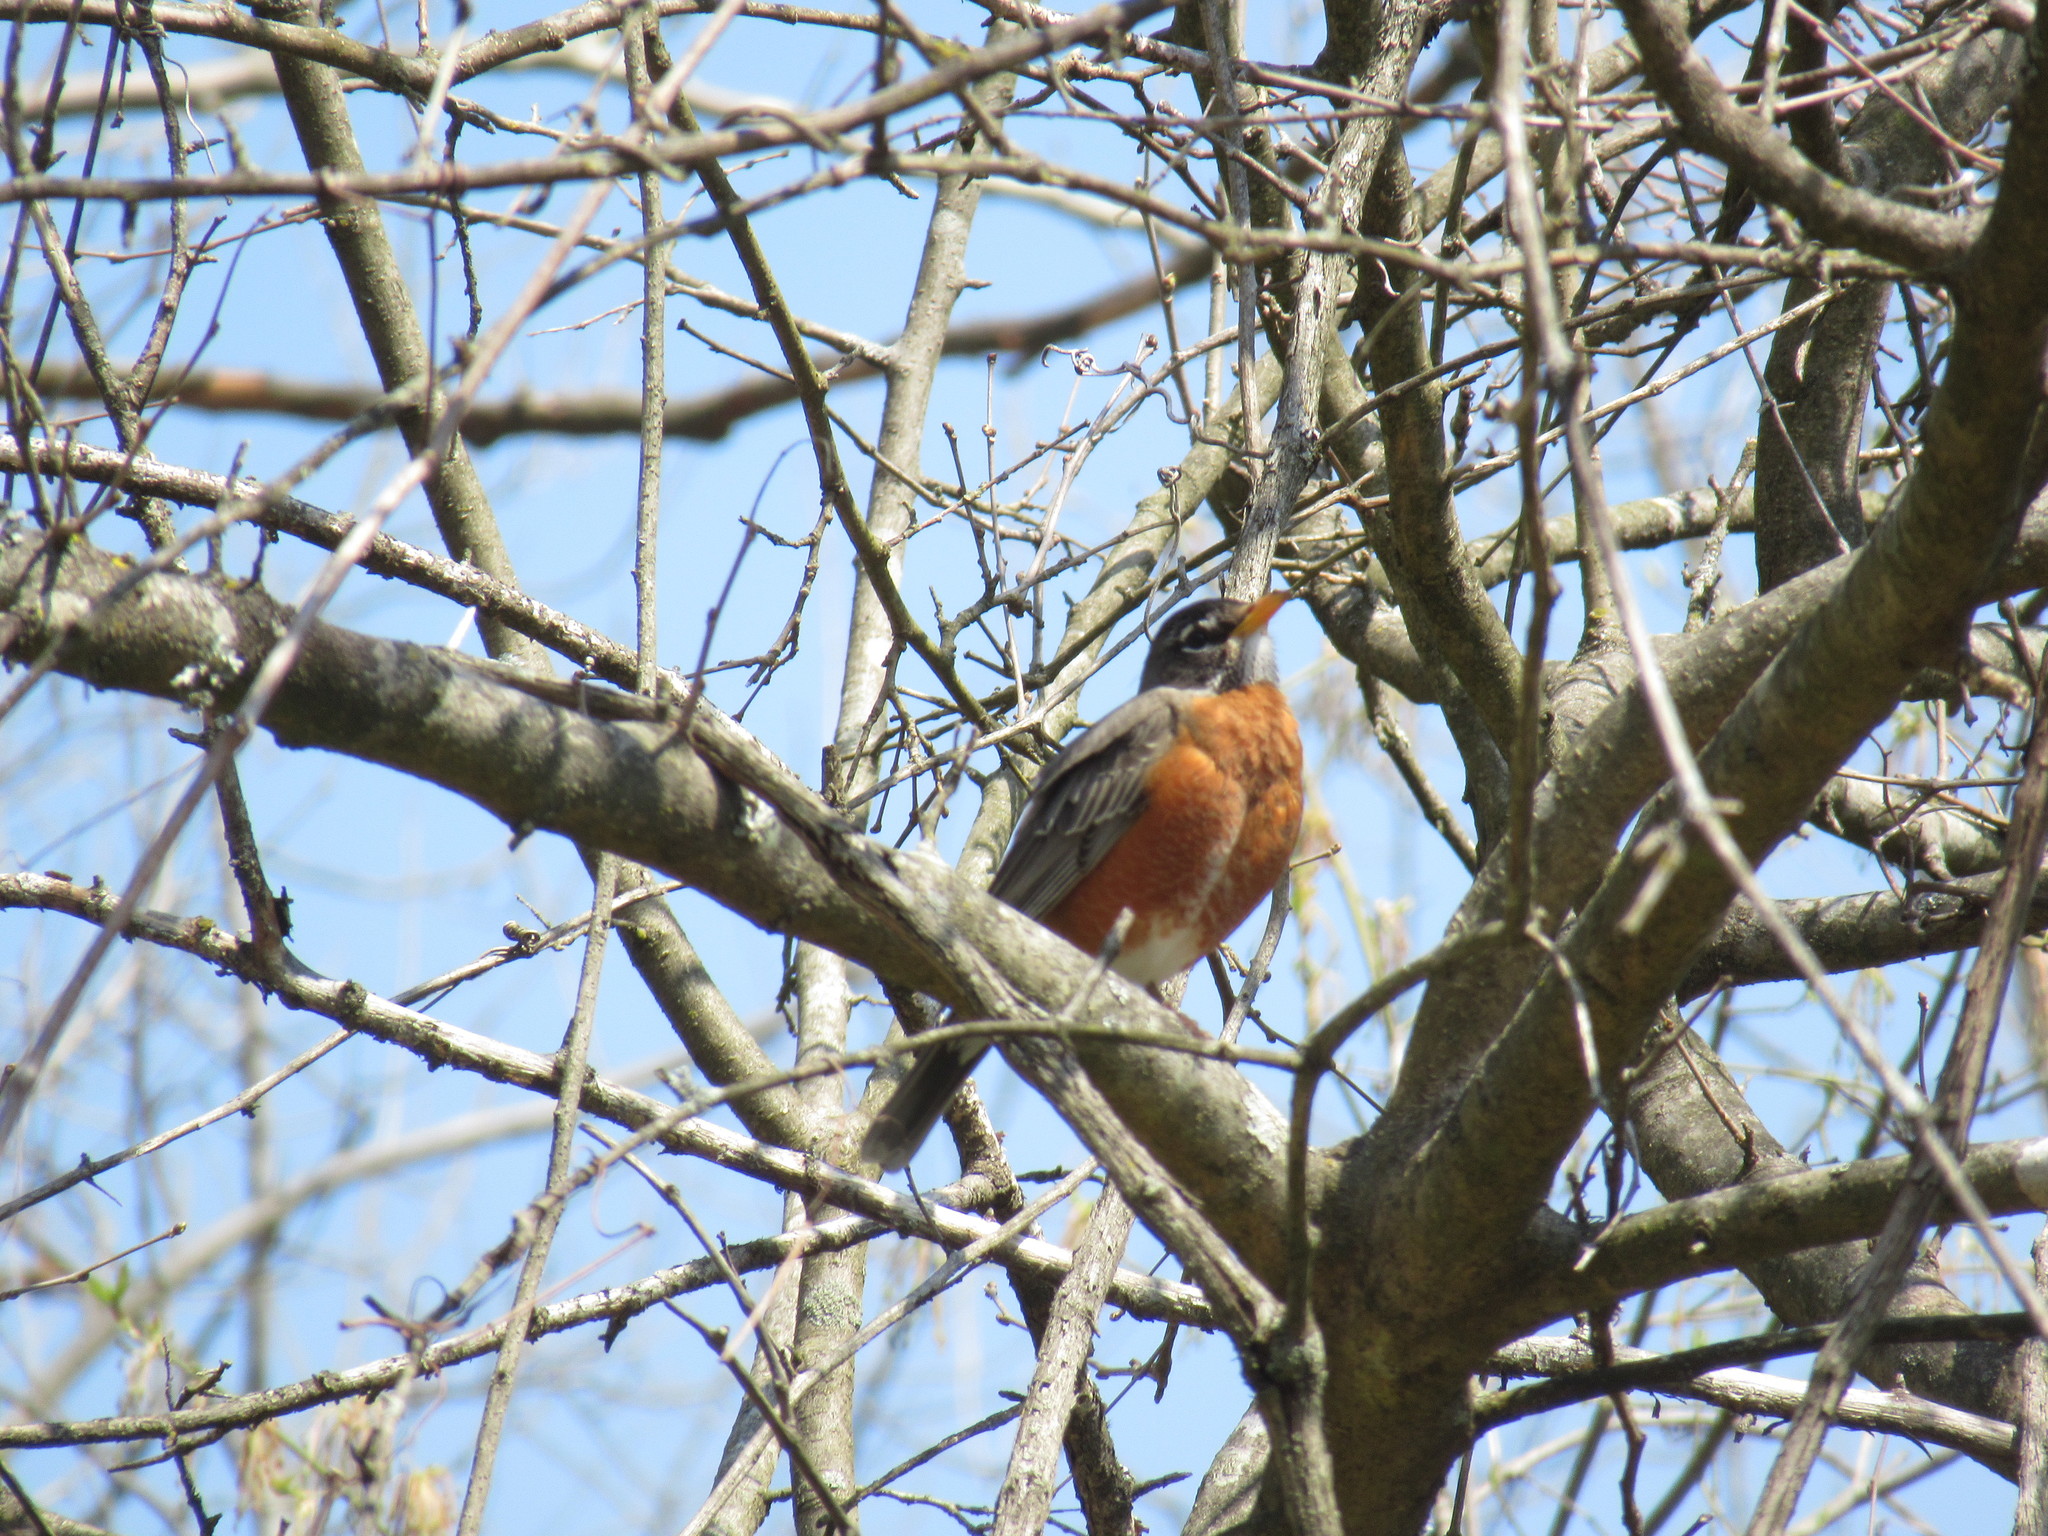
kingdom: Animalia
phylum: Chordata
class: Aves
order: Passeriformes
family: Turdidae
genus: Turdus
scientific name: Turdus migratorius
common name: American robin
